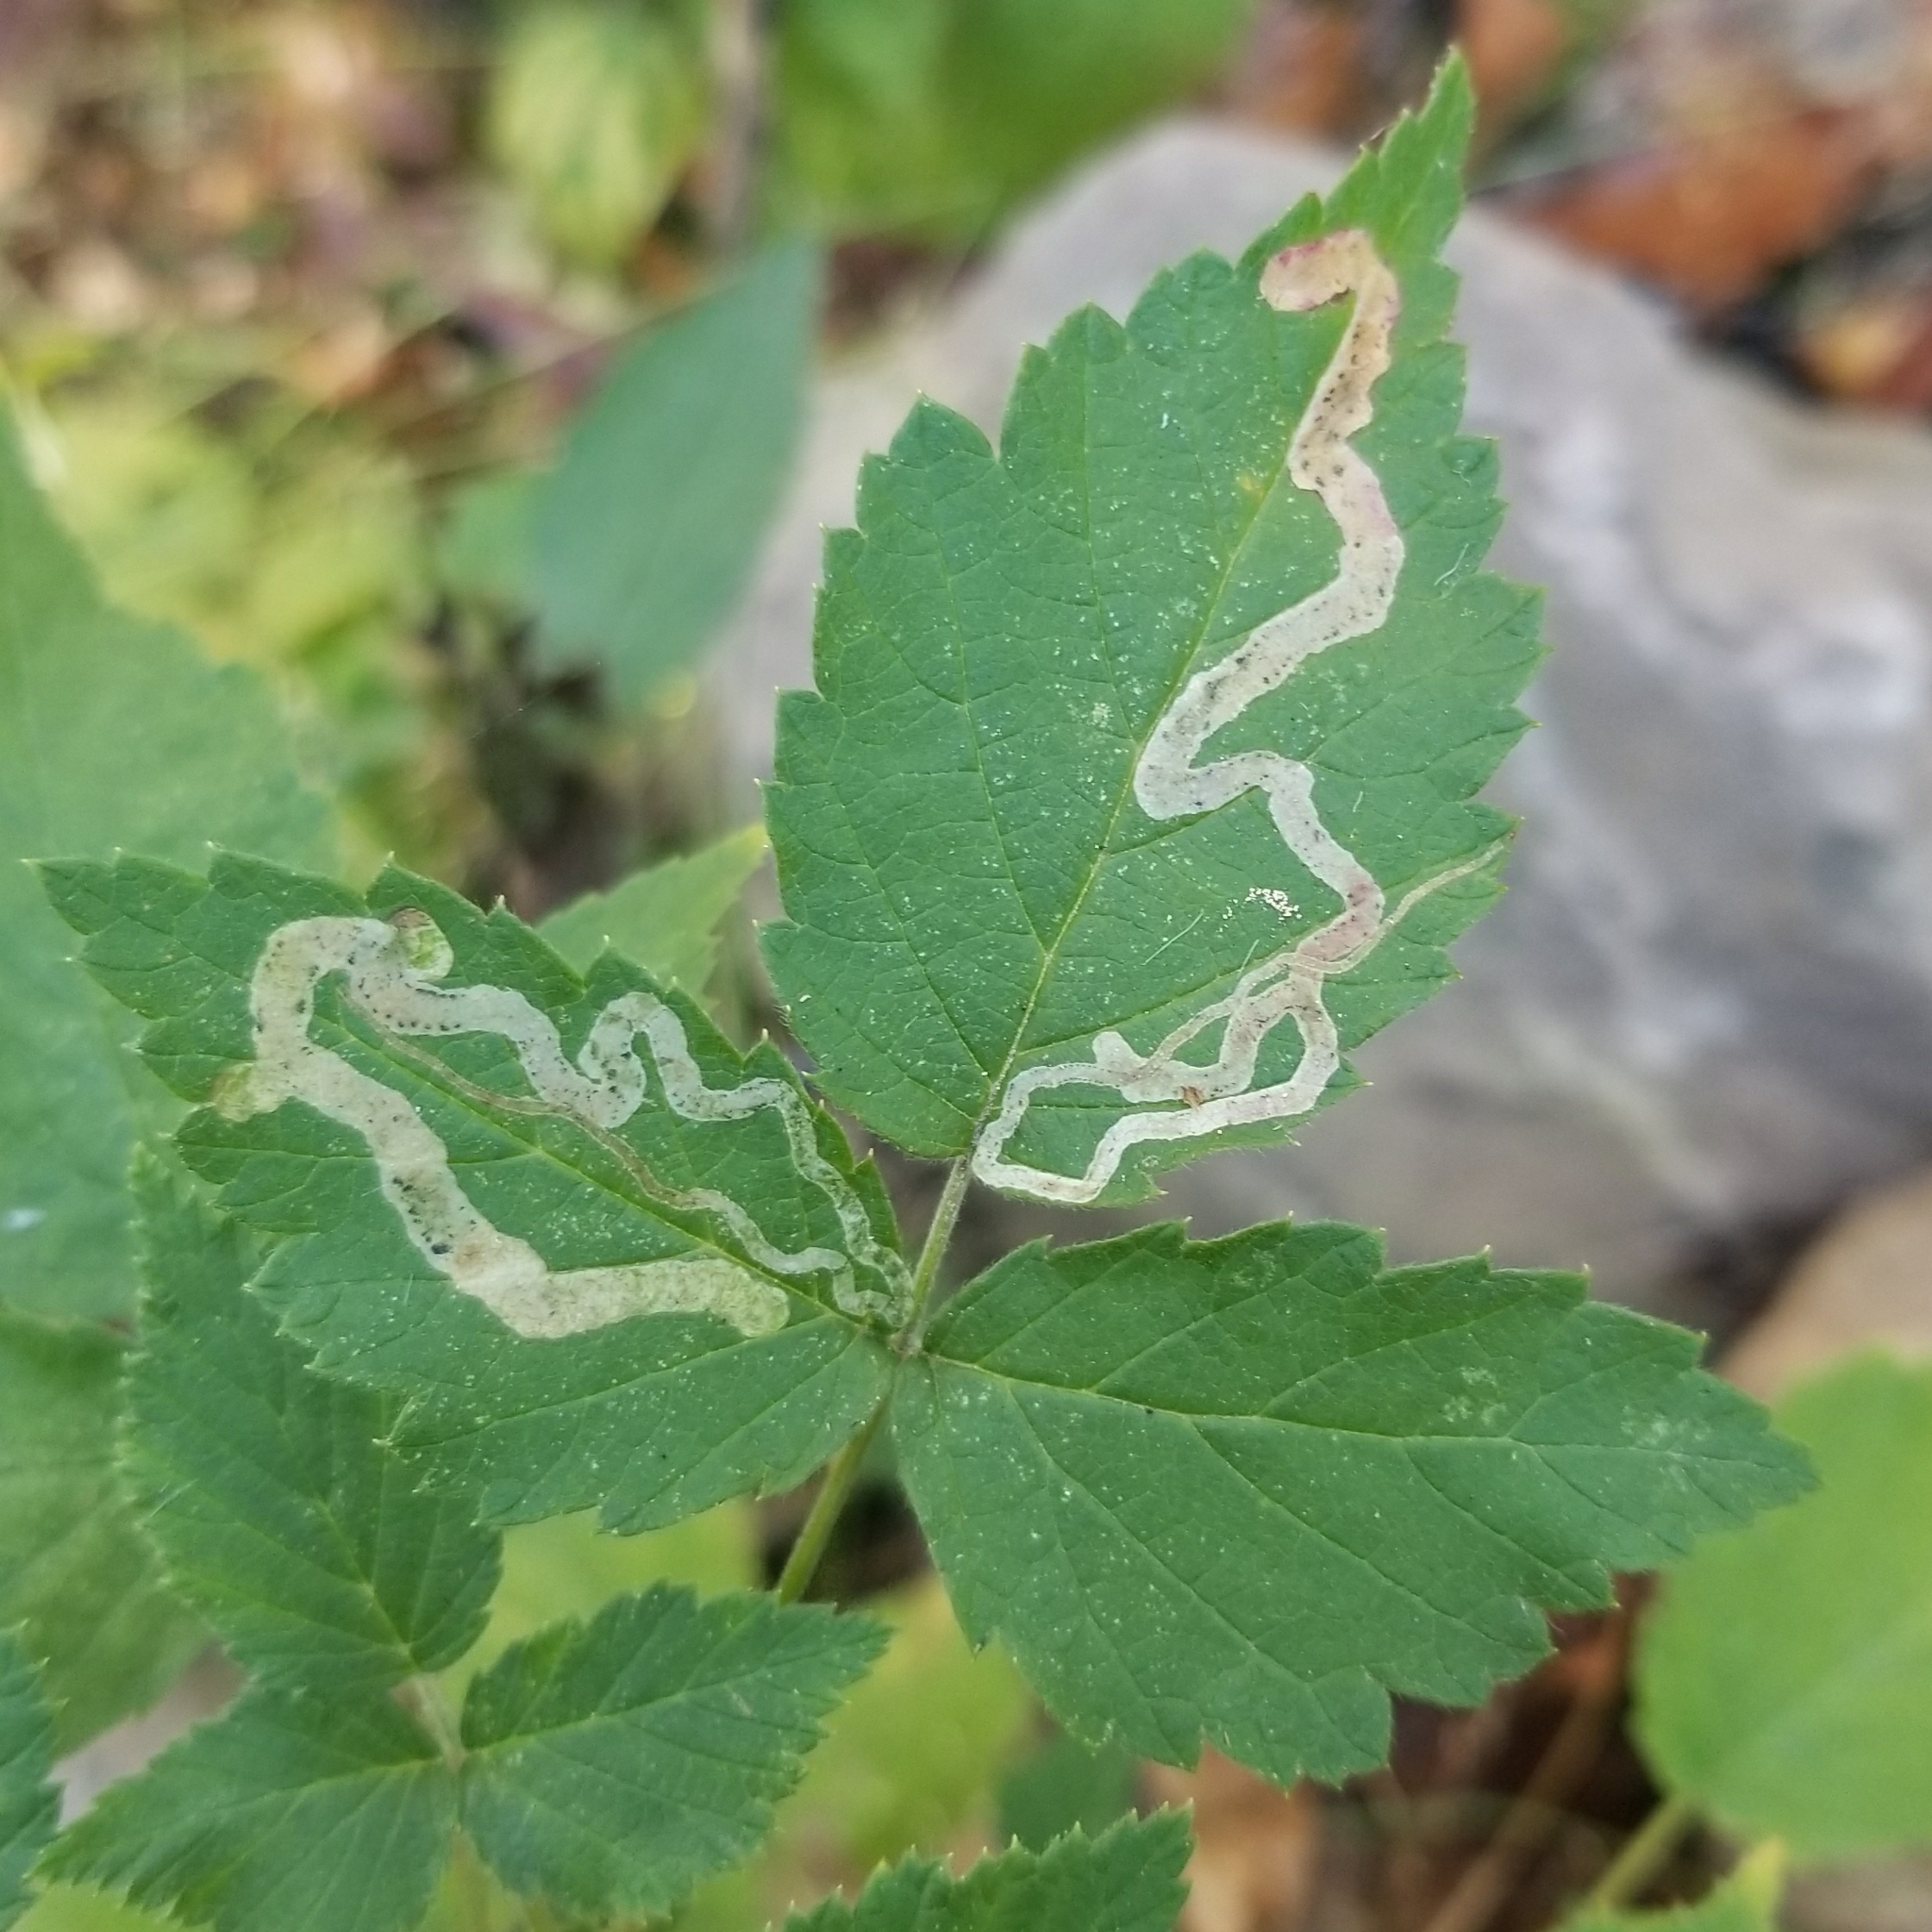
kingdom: Animalia
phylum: Arthropoda
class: Insecta
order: Diptera
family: Agromyzidae
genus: Agromyza
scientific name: Agromyza vockerothi
